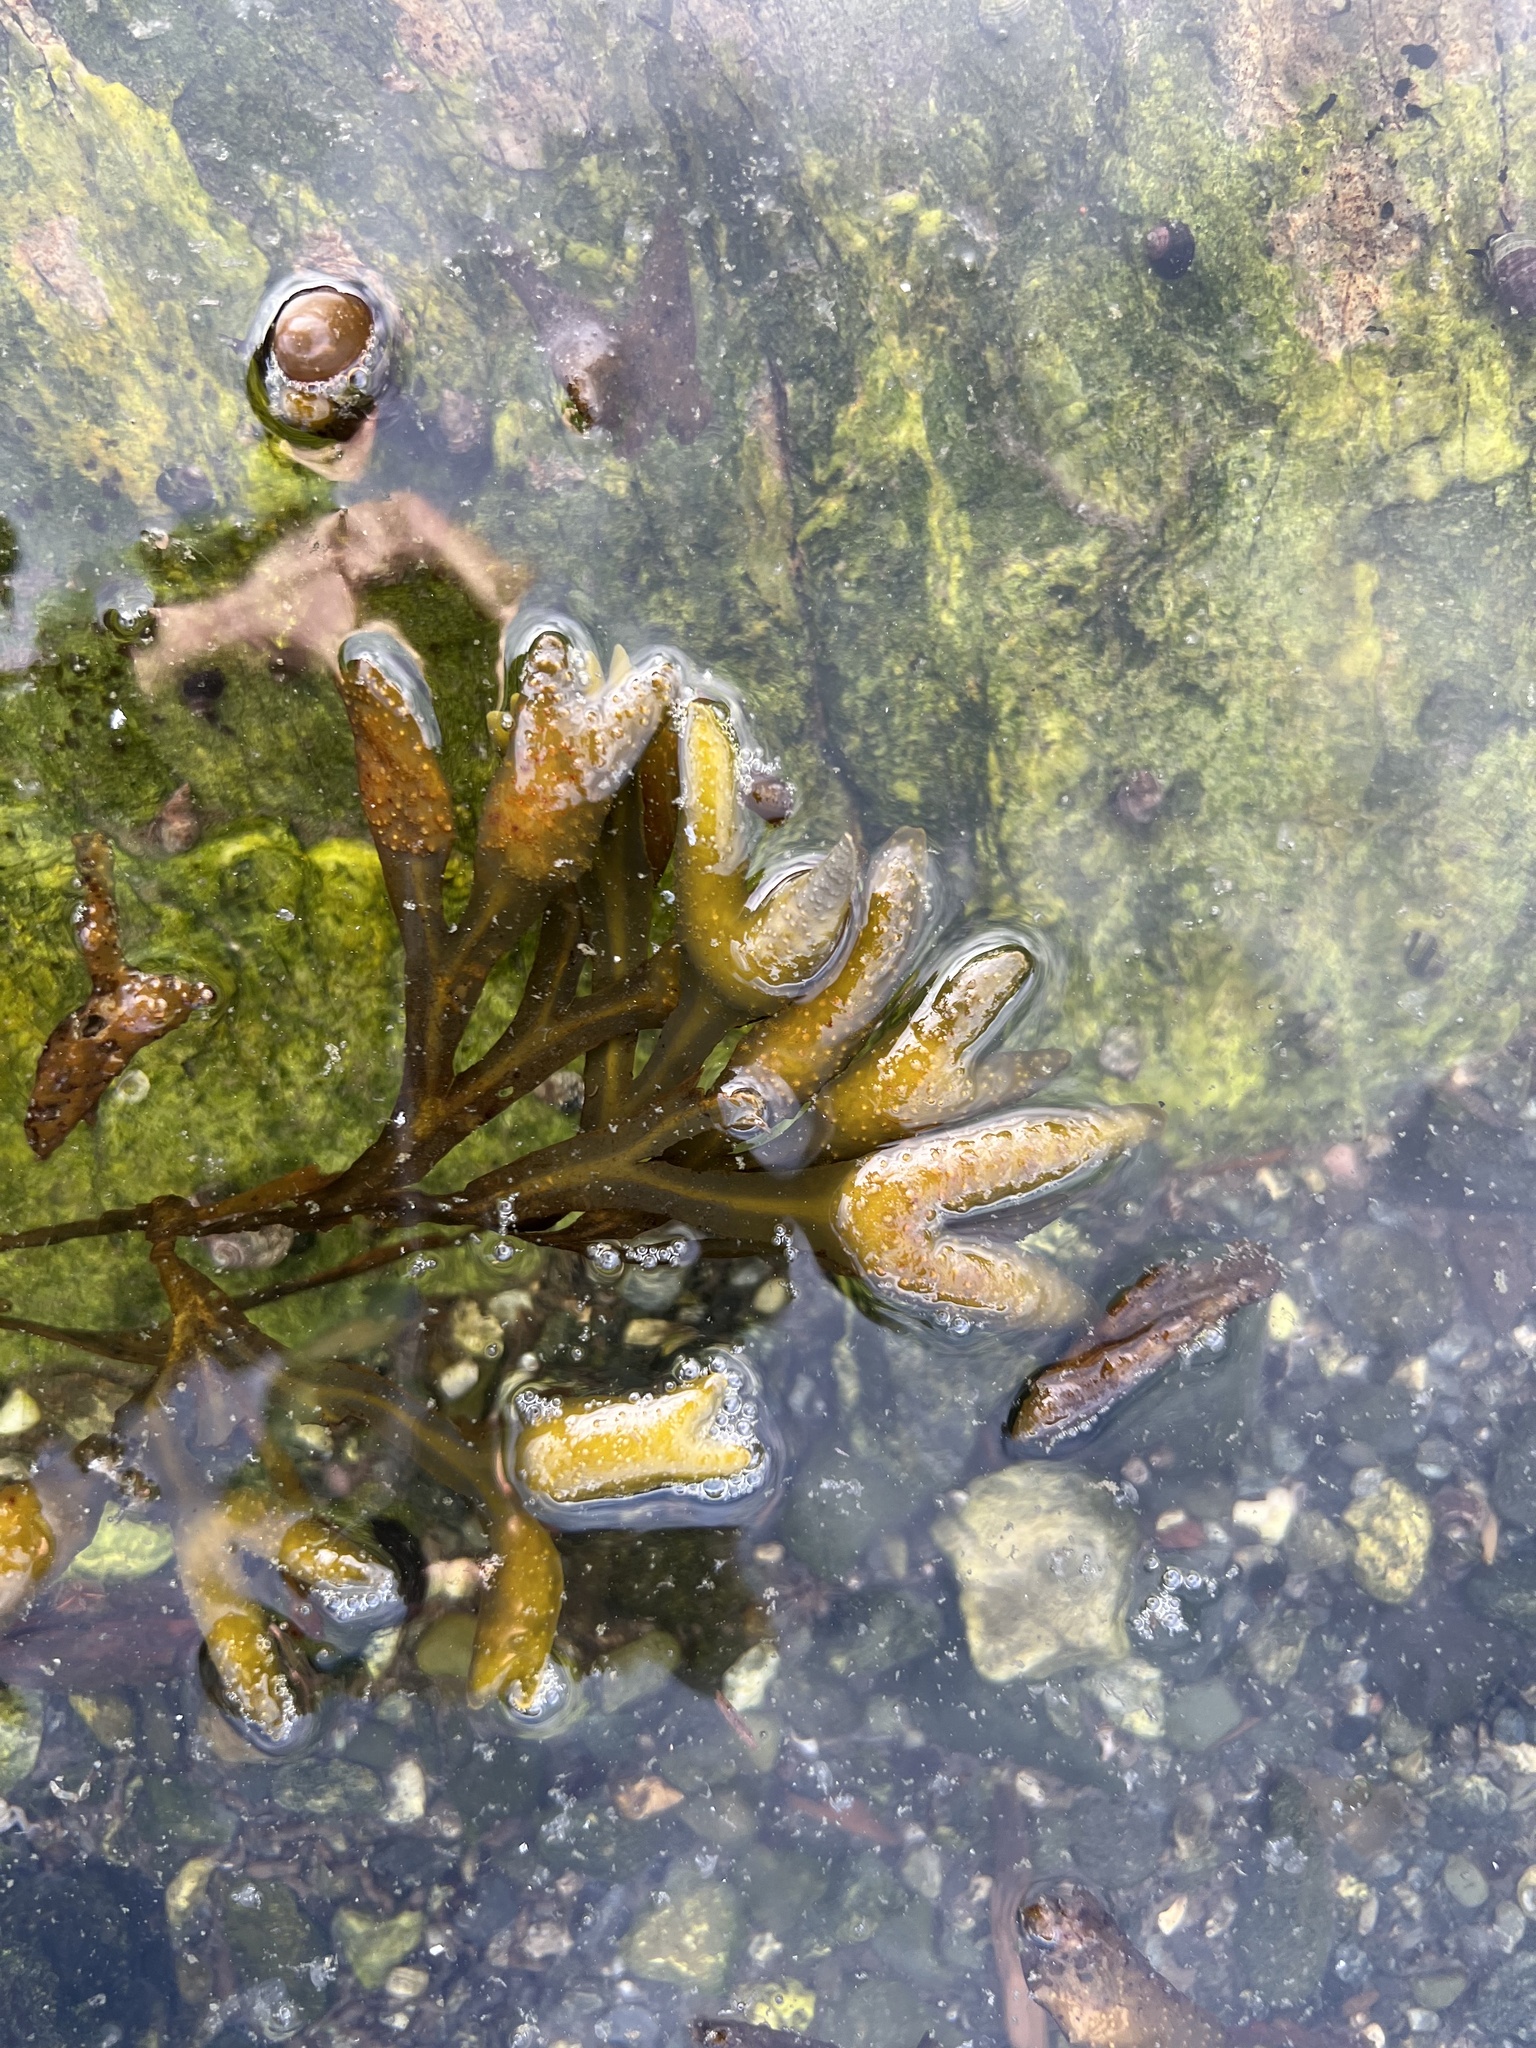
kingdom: Chromista
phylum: Ochrophyta
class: Phaeophyceae
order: Fucales
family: Fucaceae
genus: Fucus
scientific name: Fucus distichus
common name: Rockweed
